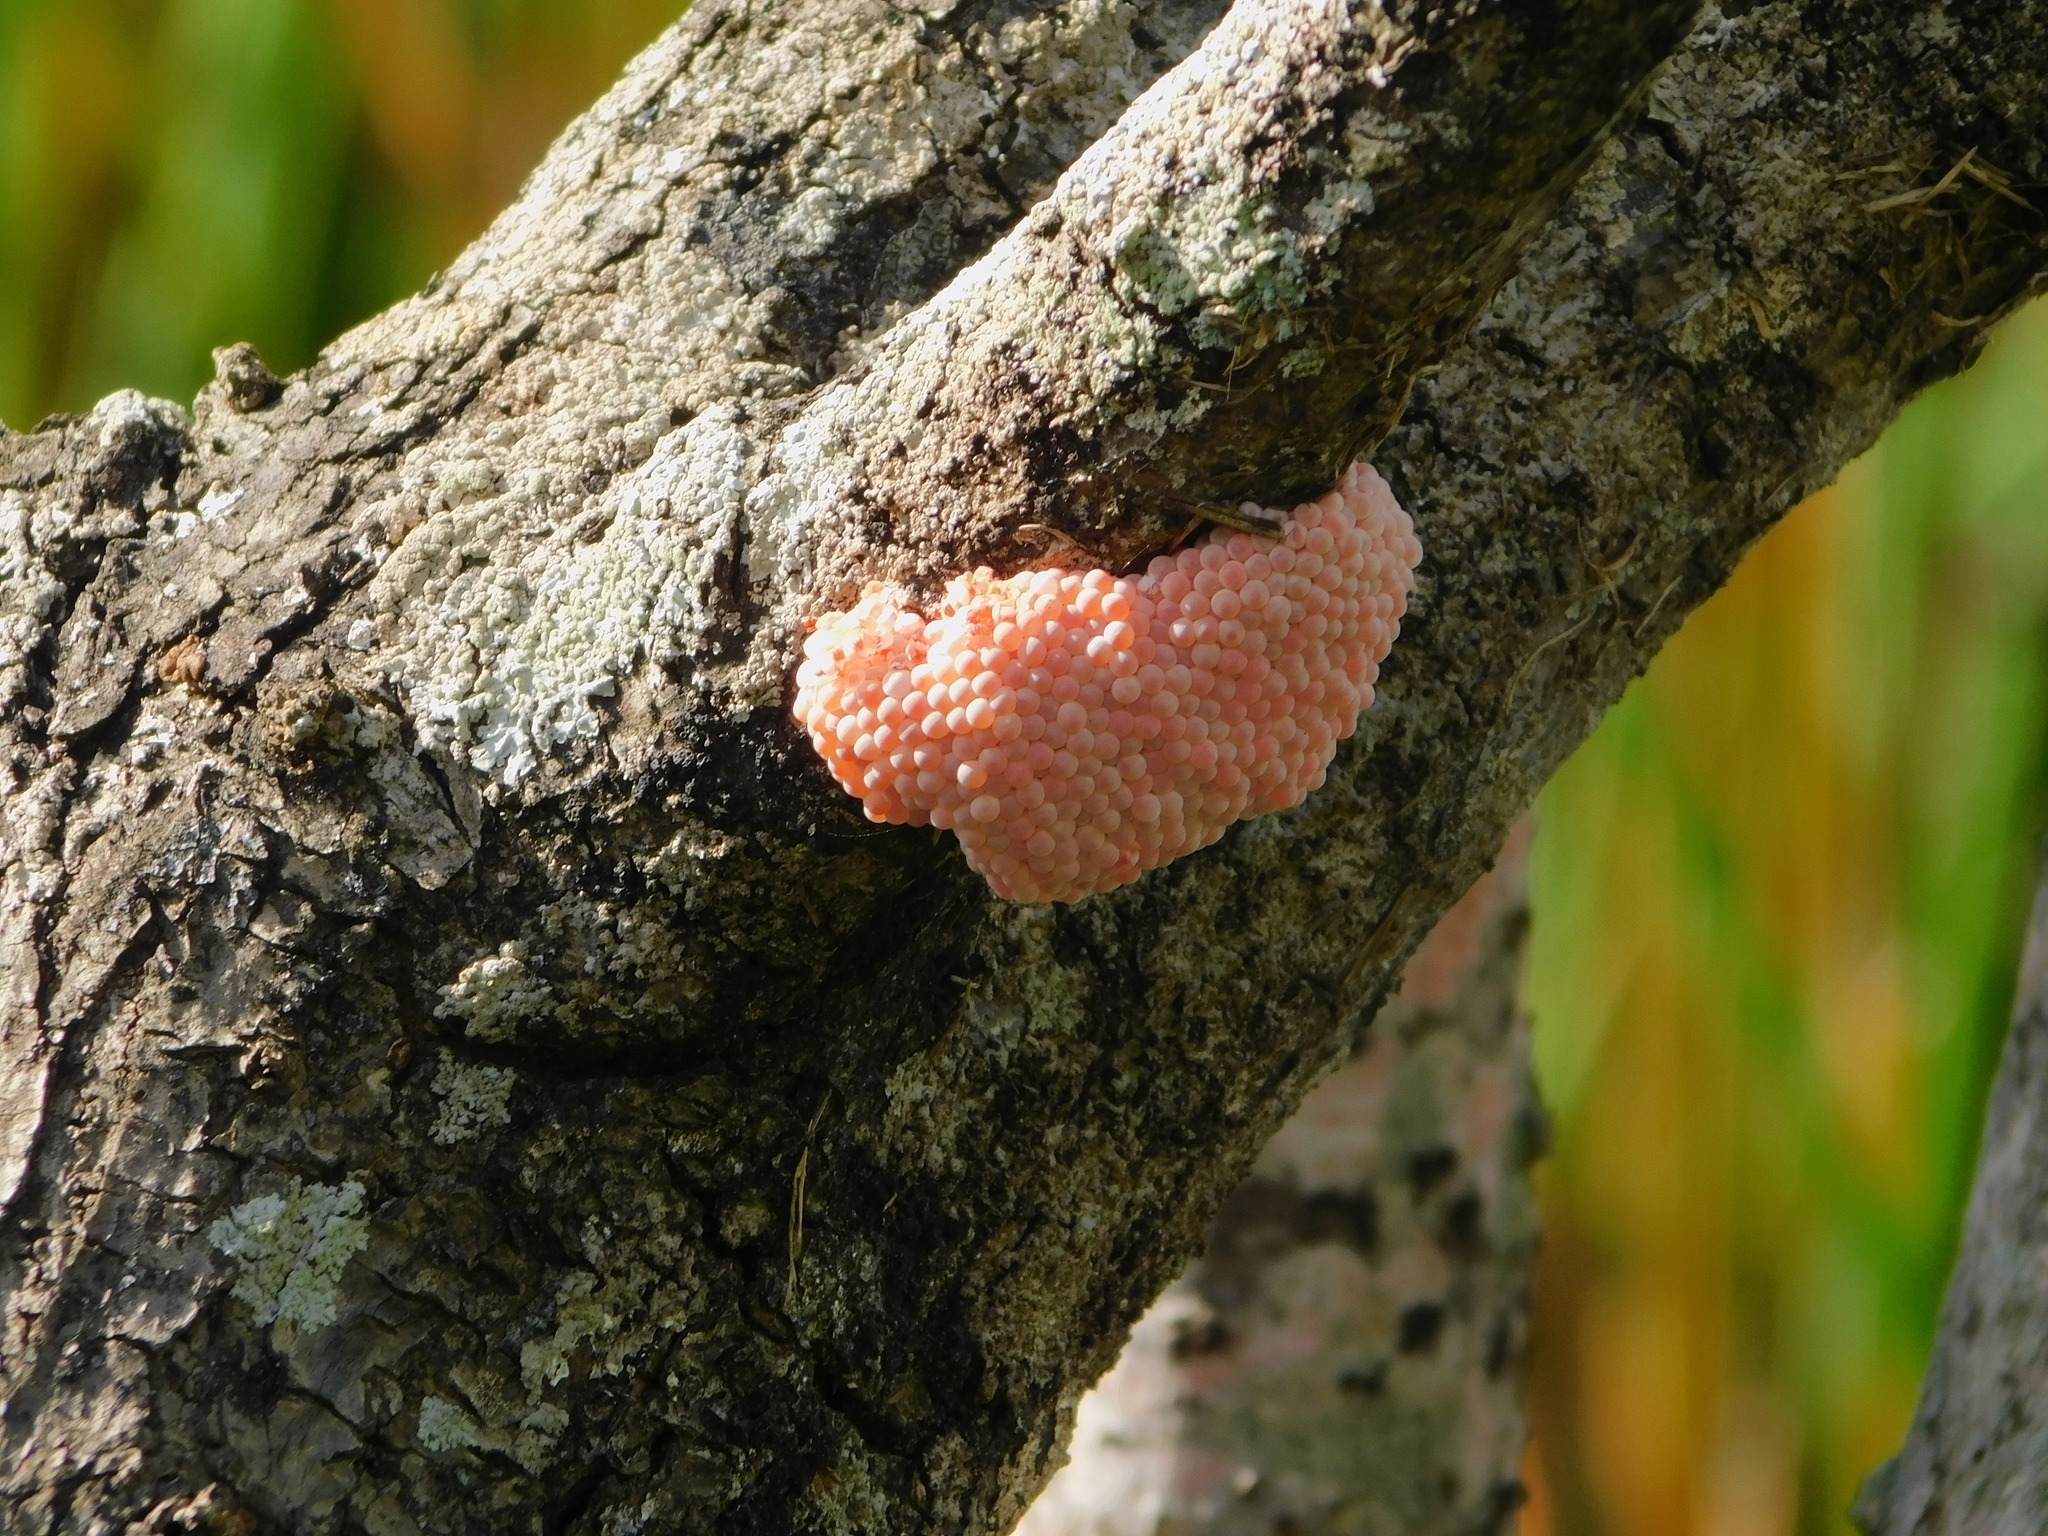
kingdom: Animalia
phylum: Mollusca
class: Gastropoda
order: Architaenioglossa
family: Ampullariidae
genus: Pomacea
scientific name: Pomacea
